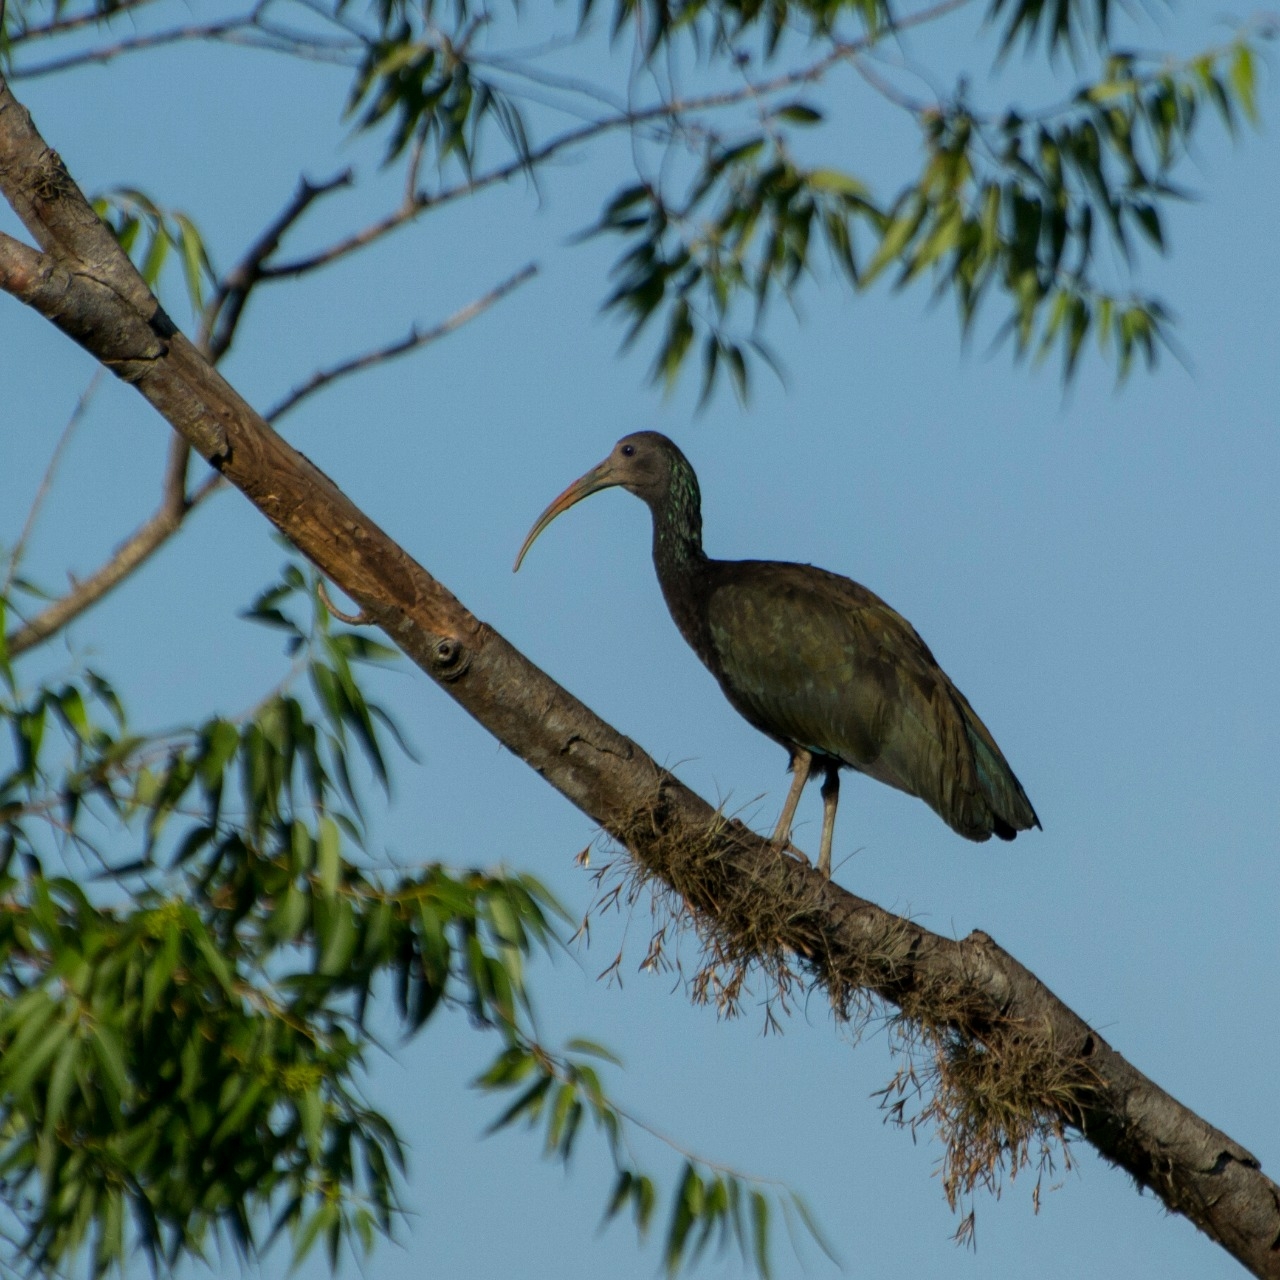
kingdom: Animalia
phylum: Chordata
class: Aves
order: Pelecaniformes
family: Threskiornithidae
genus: Mesembrinibis
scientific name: Mesembrinibis cayennensis
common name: Green ibis
